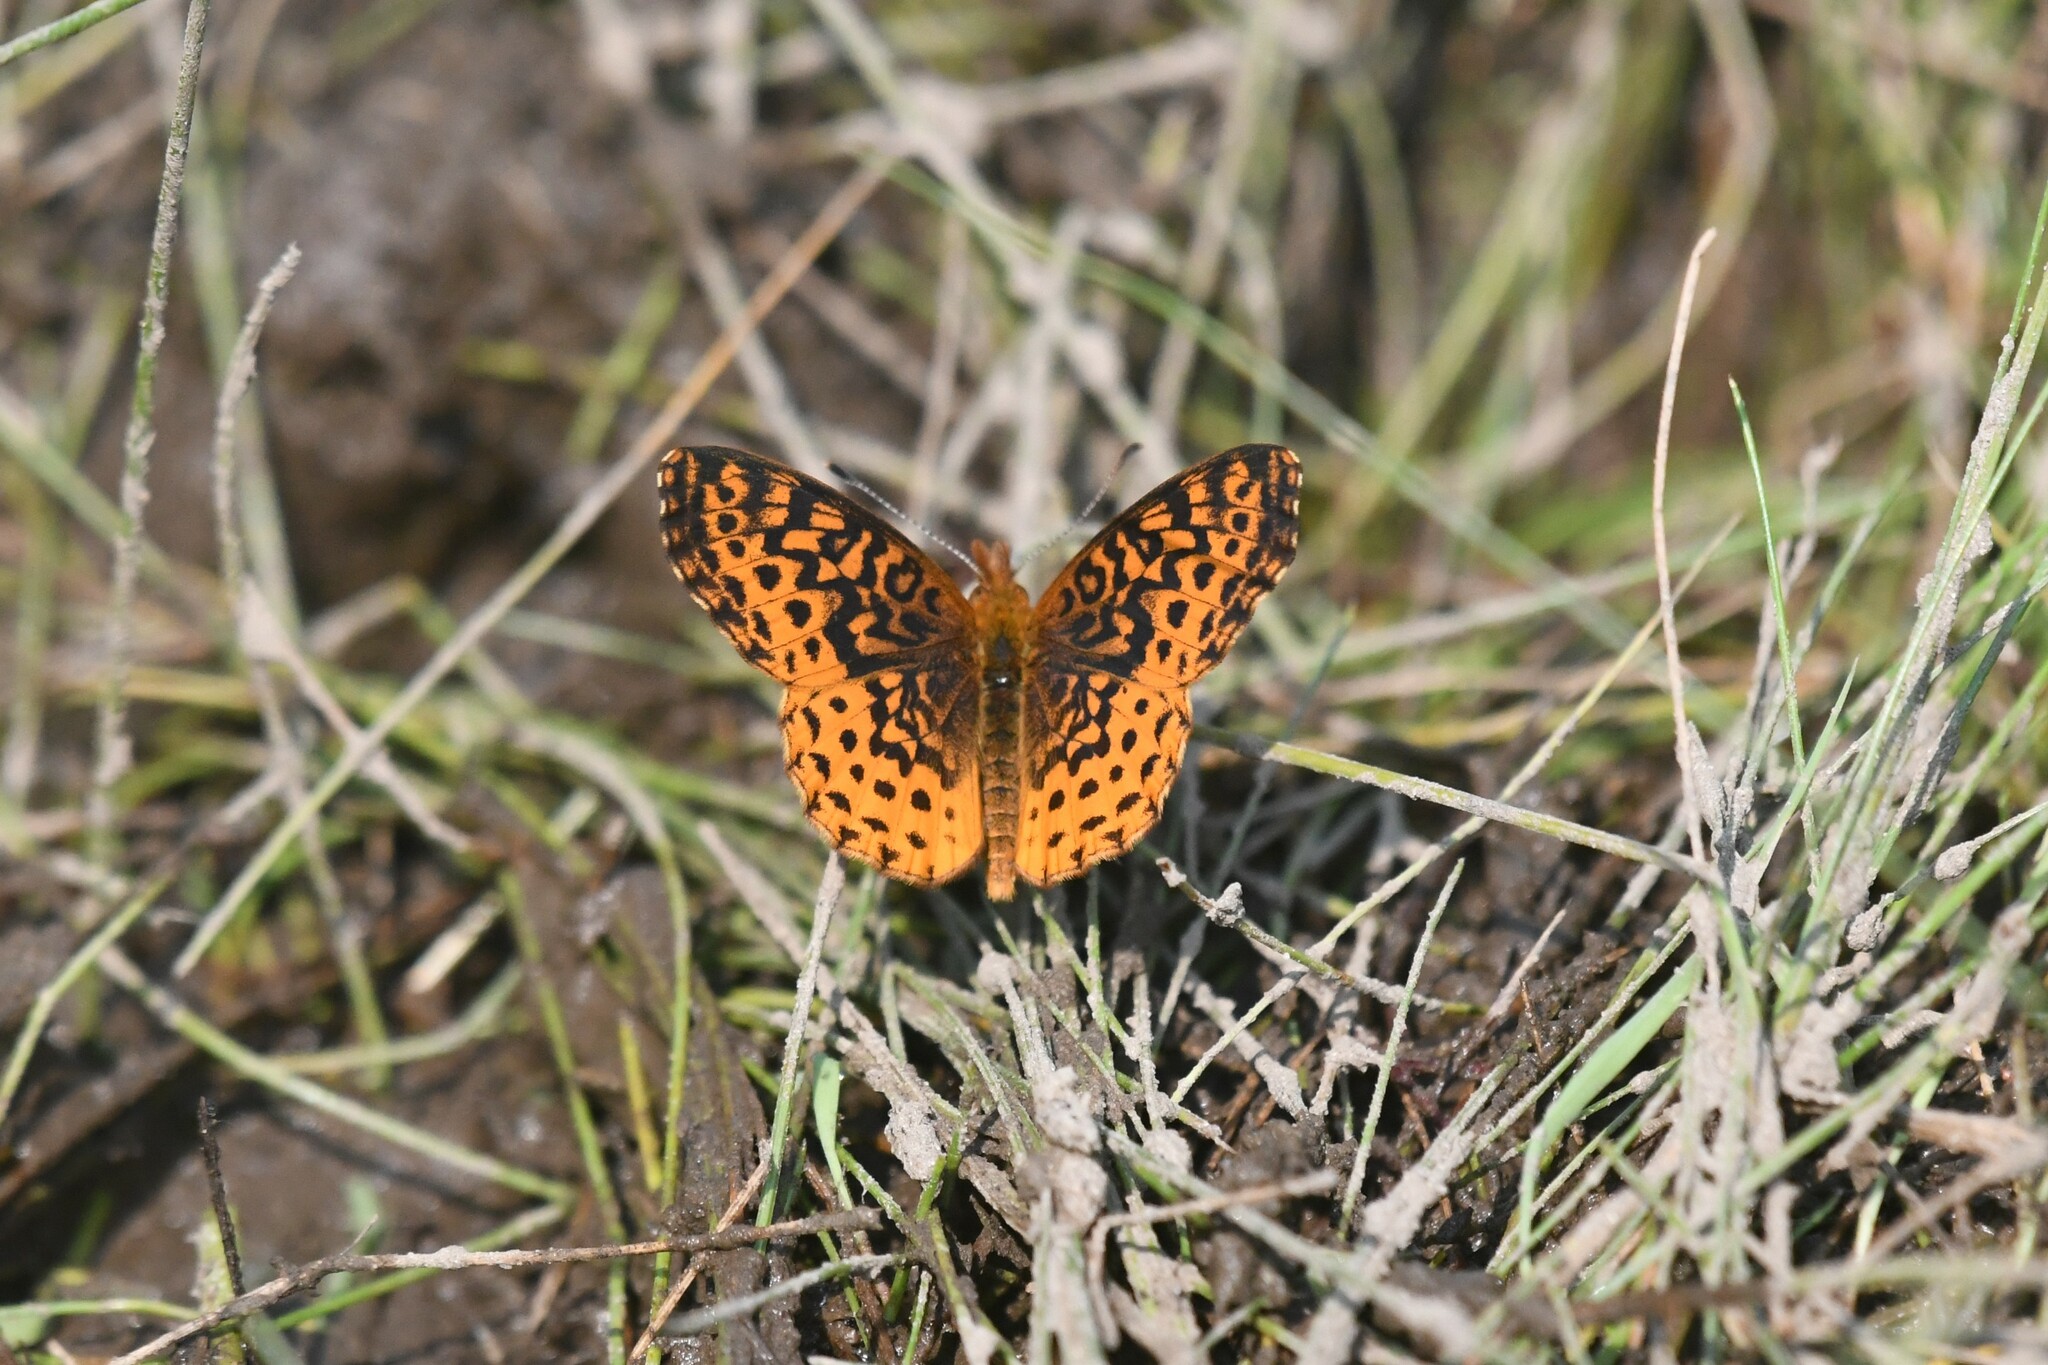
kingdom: Animalia
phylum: Arthropoda
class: Insecta
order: Lepidoptera
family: Nymphalidae
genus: Clossiana
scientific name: Clossiana toddi
